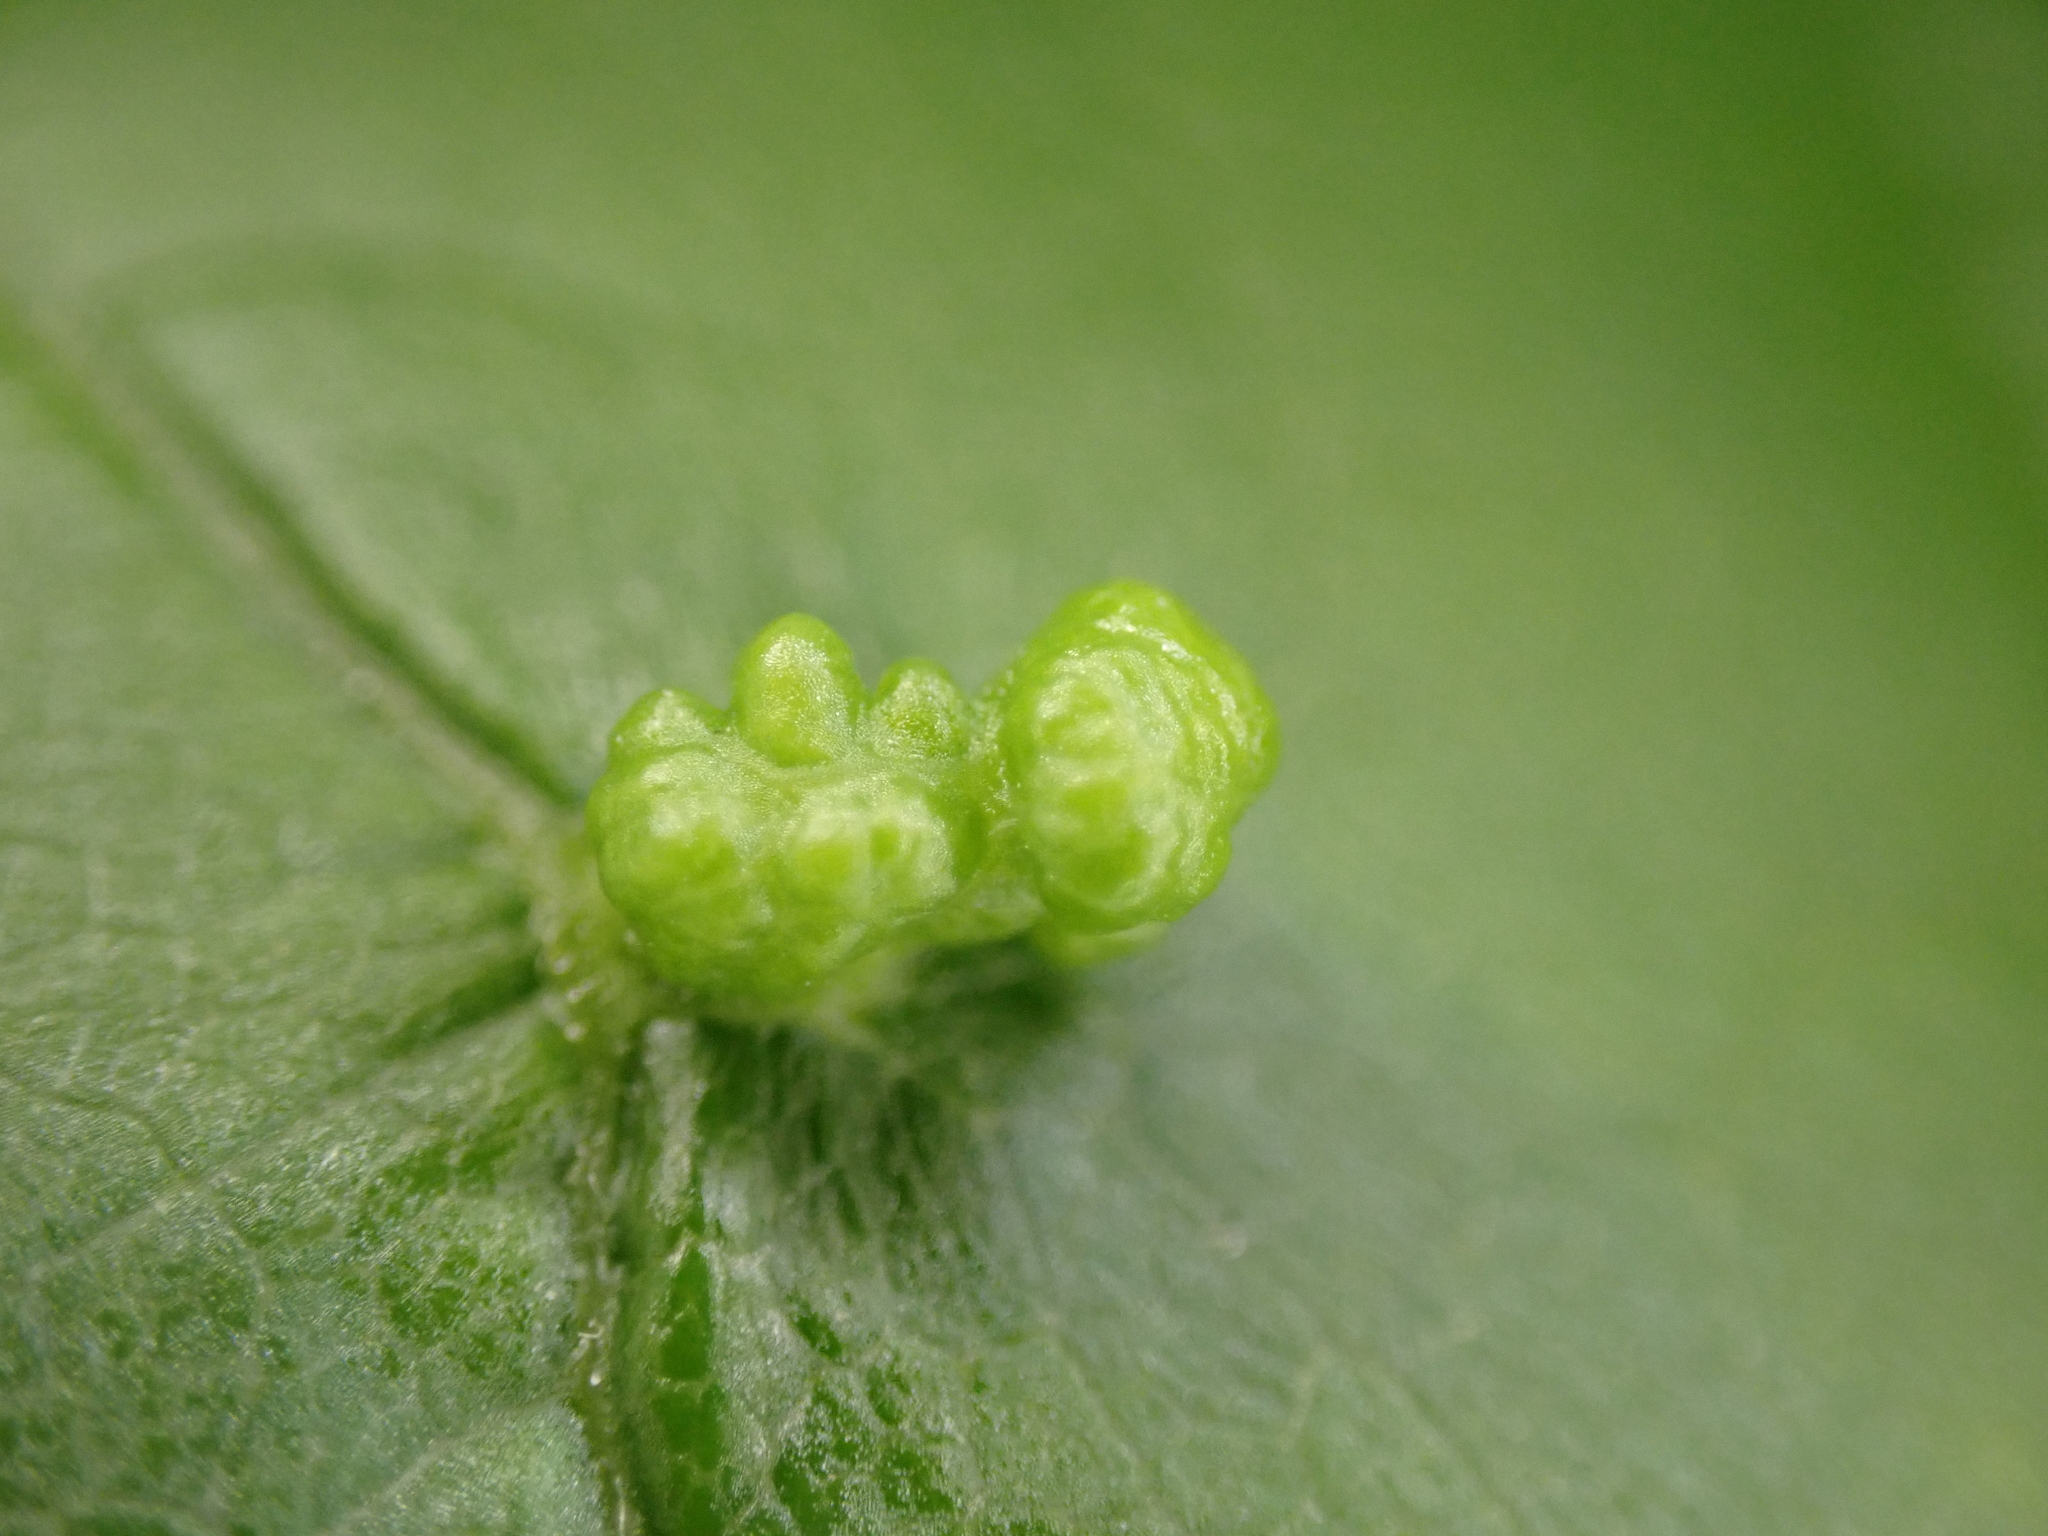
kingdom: Animalia
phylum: Arthropoda
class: Arachnida
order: Trombidiformes
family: Eriophyidae
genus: Aceria
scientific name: Aceria
